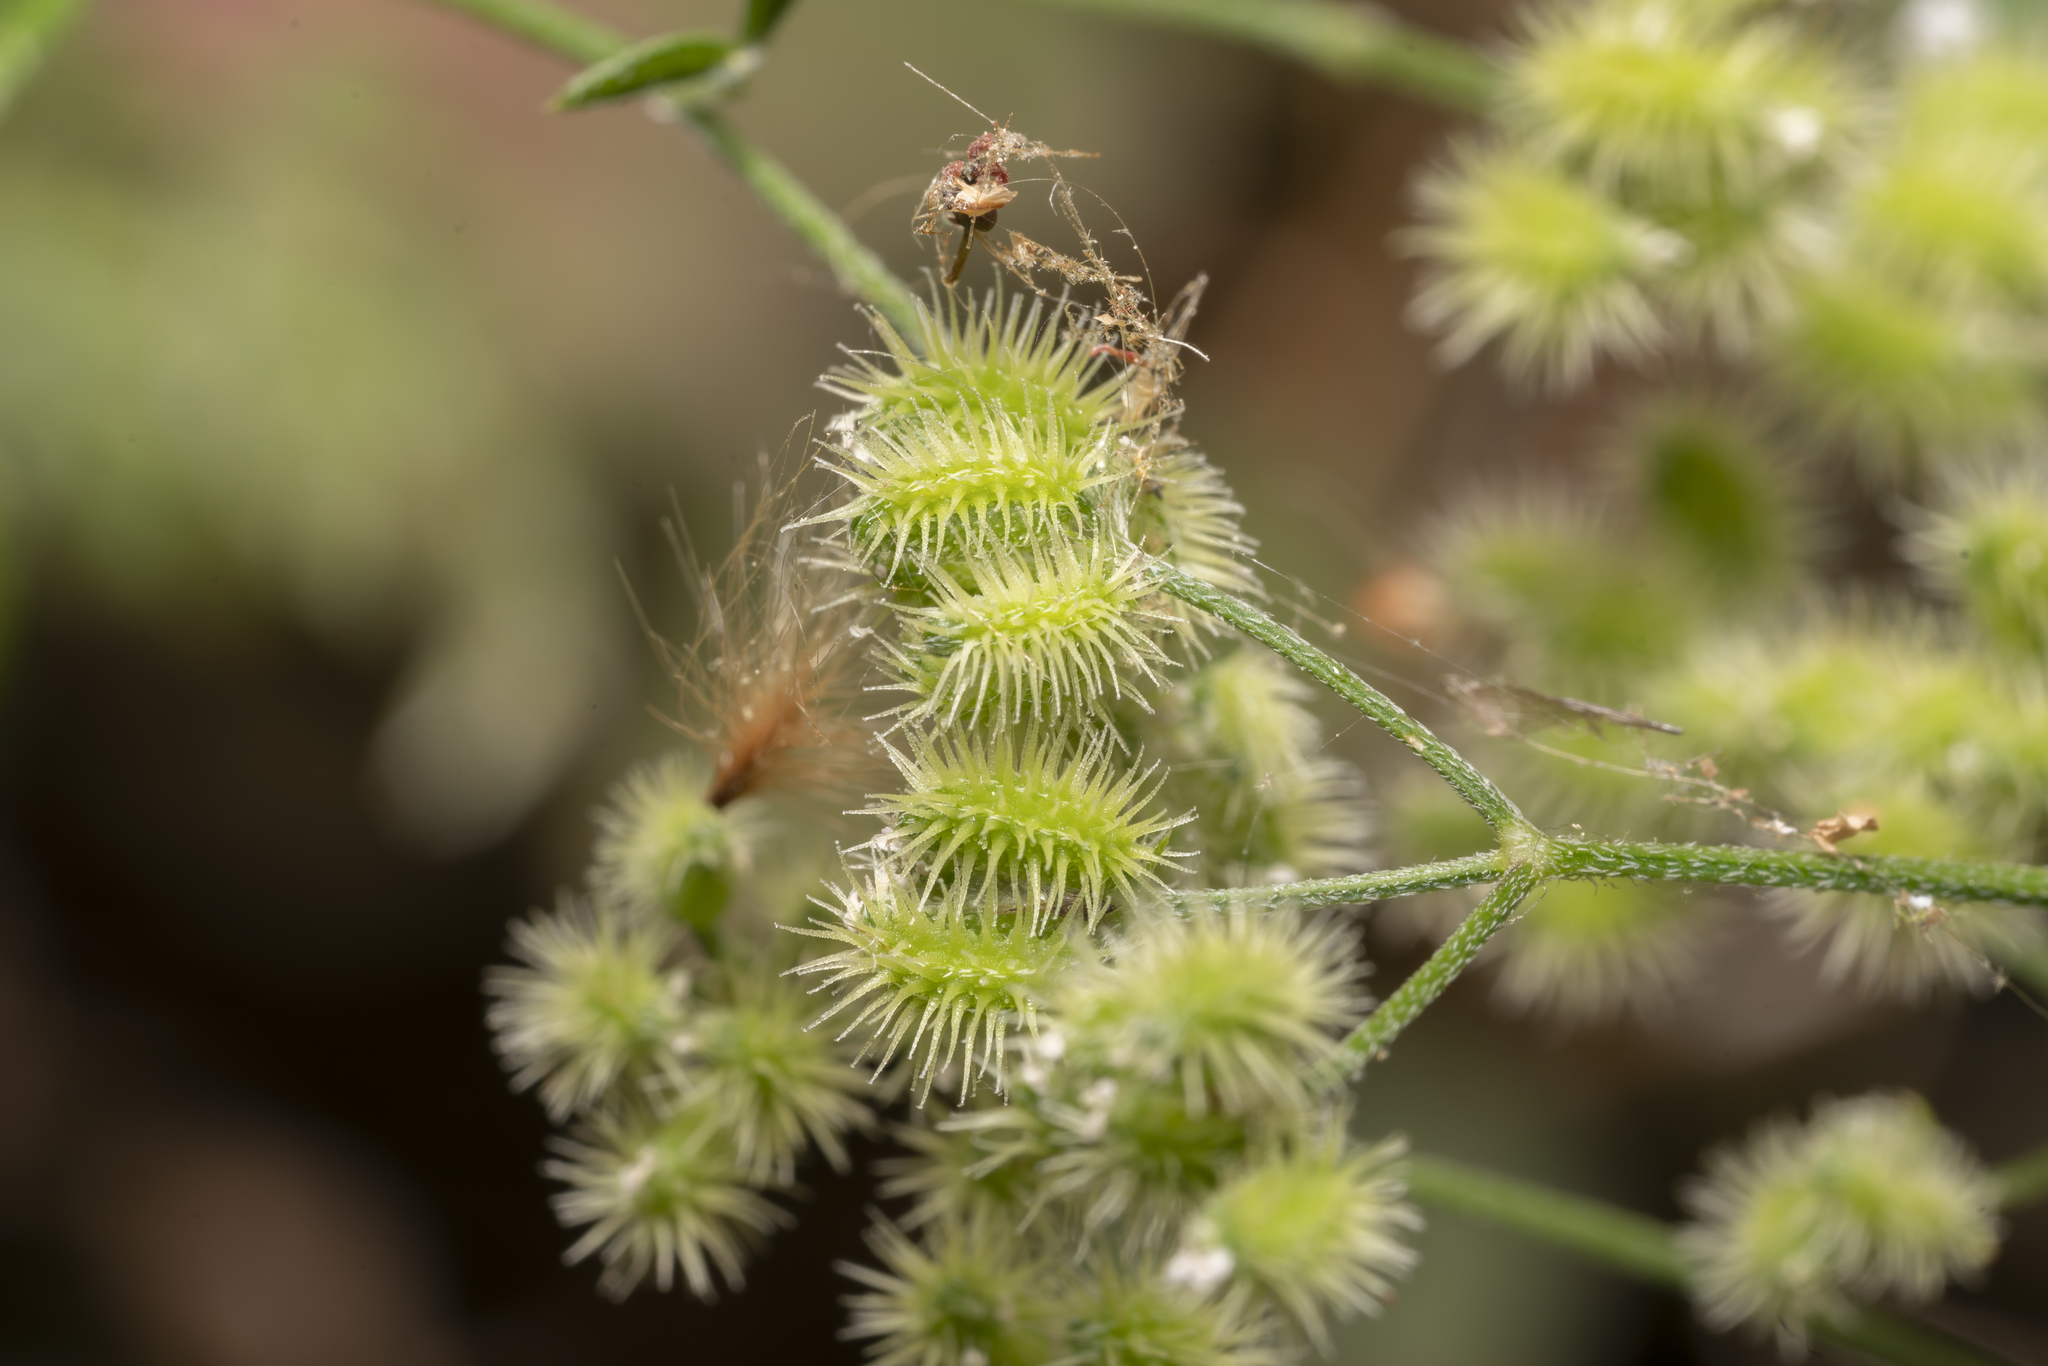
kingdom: Plantae
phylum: Tracheophyta
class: Magnoliopsida
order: Apiales
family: Apiaceae
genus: Torilis
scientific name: Torilis leptophylla
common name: Bristlefruit hedgeparsley
